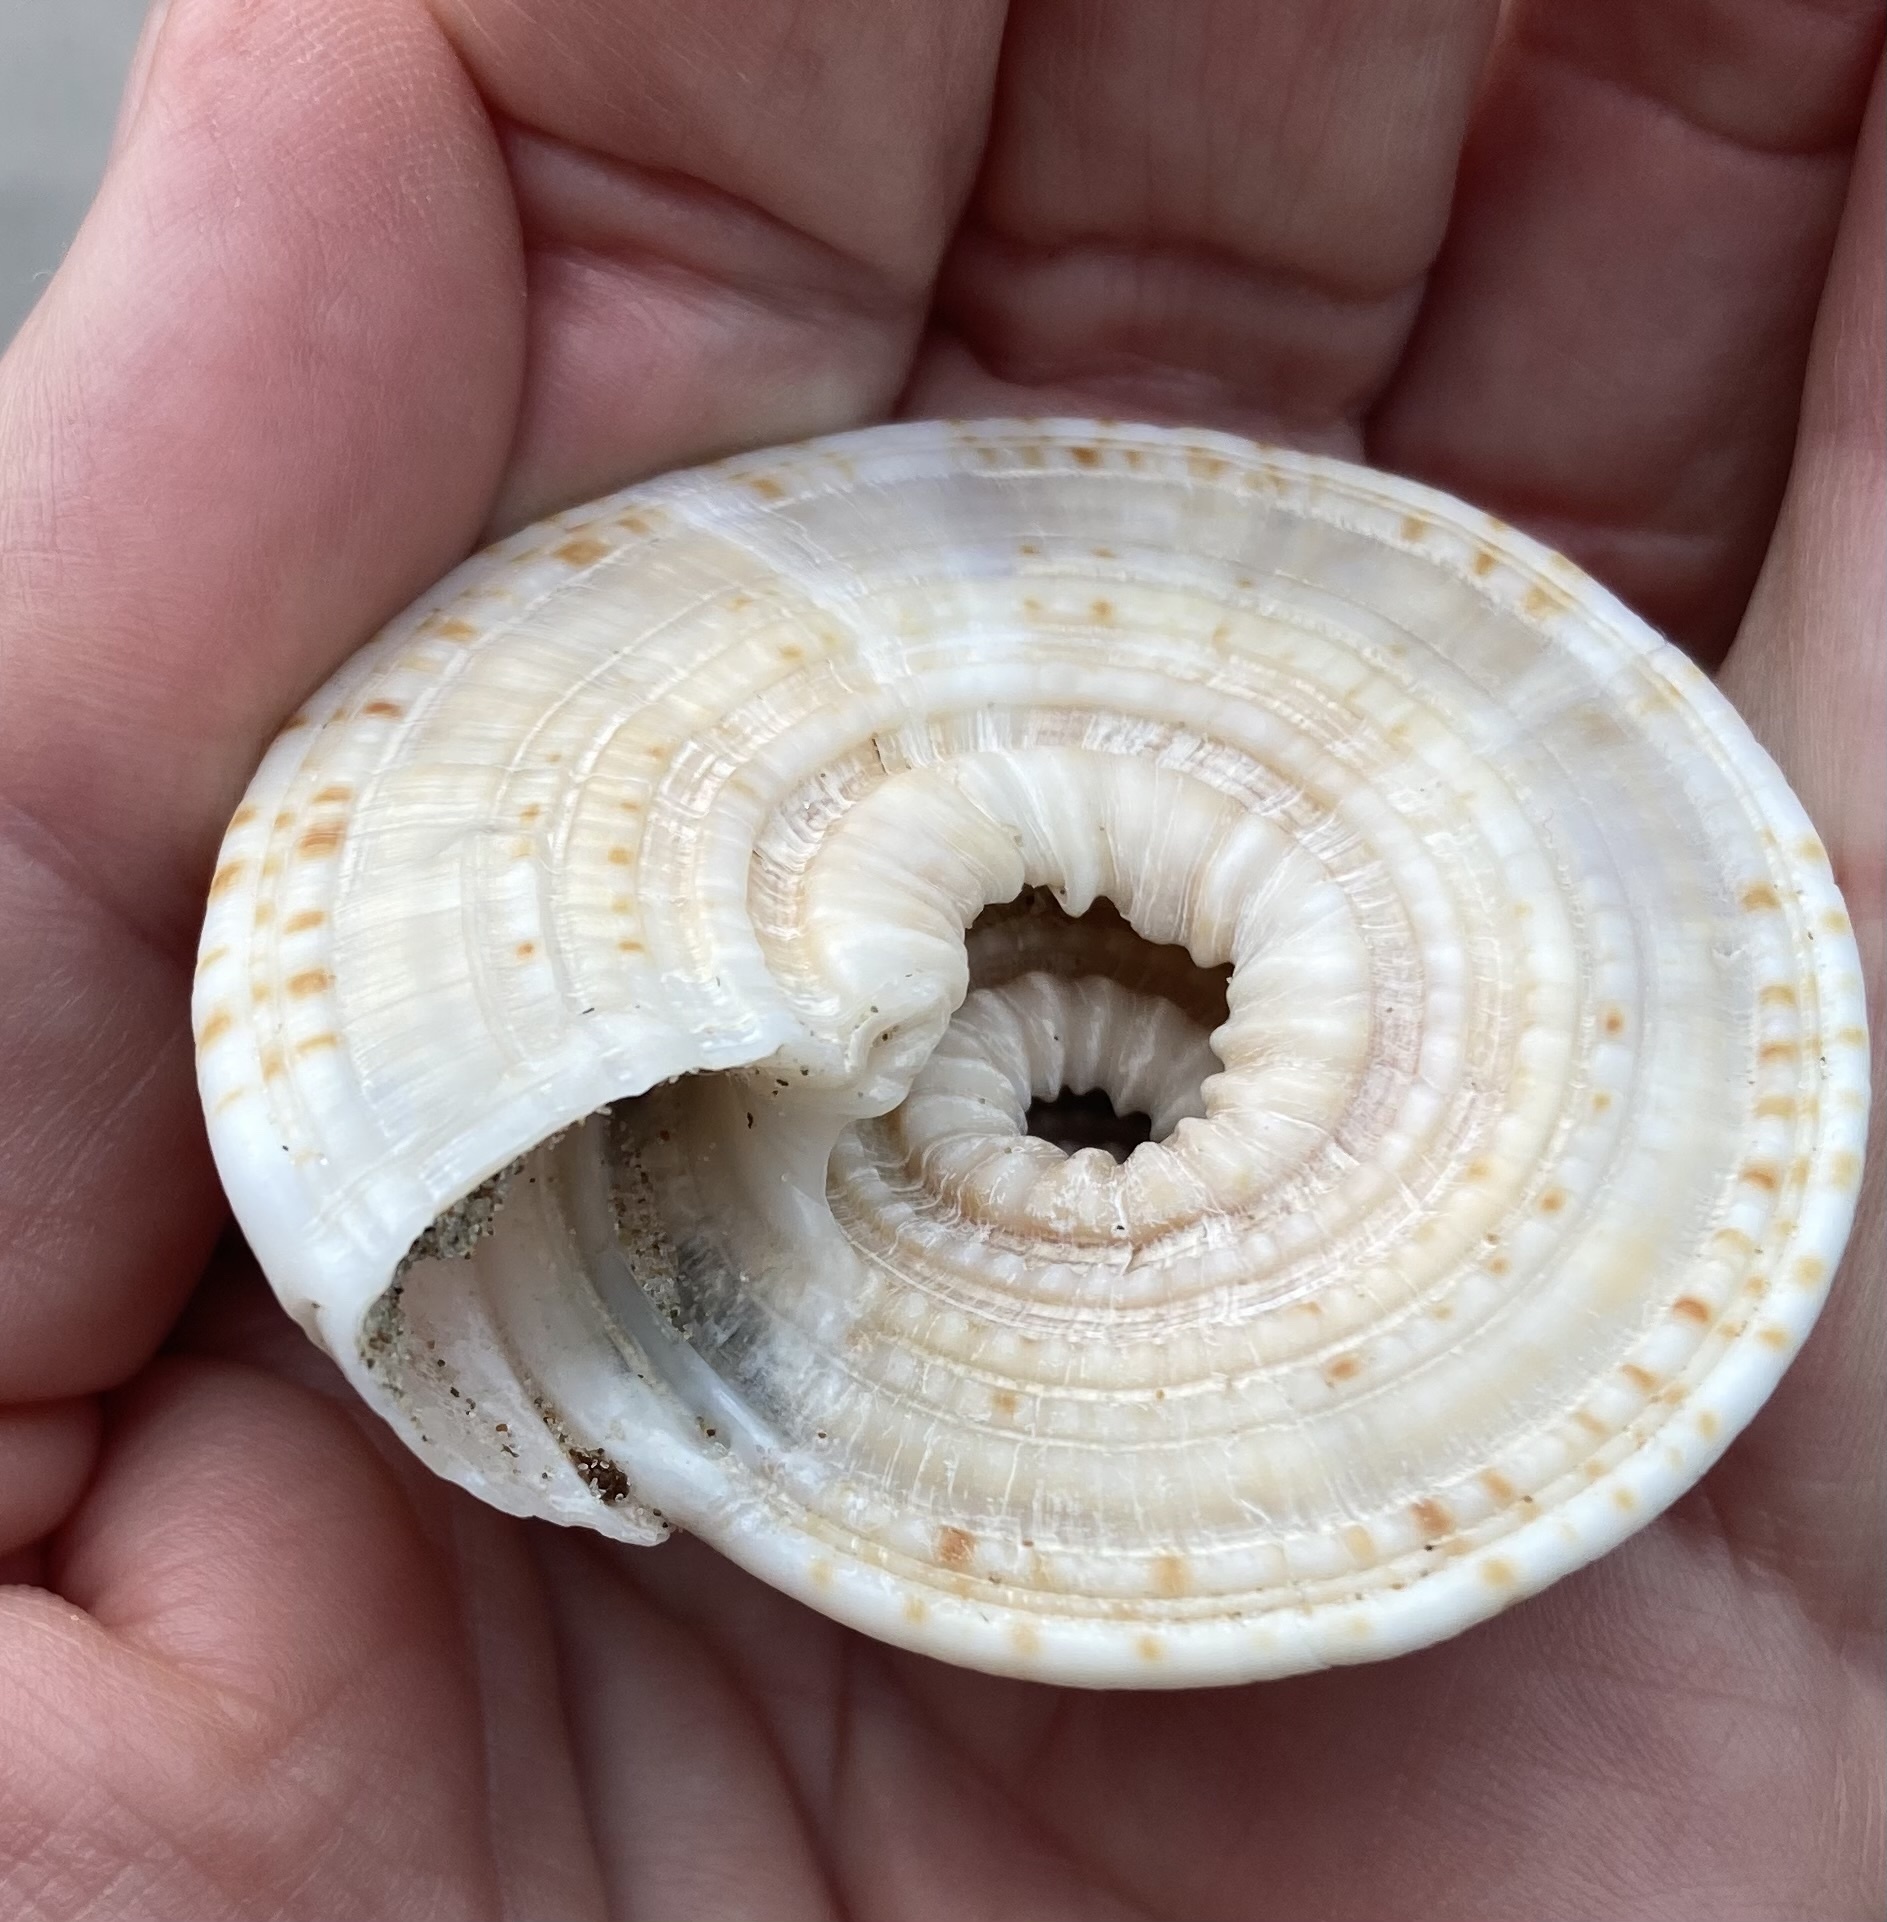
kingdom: Animalia
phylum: Mollusca
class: Gastropoda
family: Architectonicidae
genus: Architectonica
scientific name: Architectonica nobilis
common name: Common sundial
